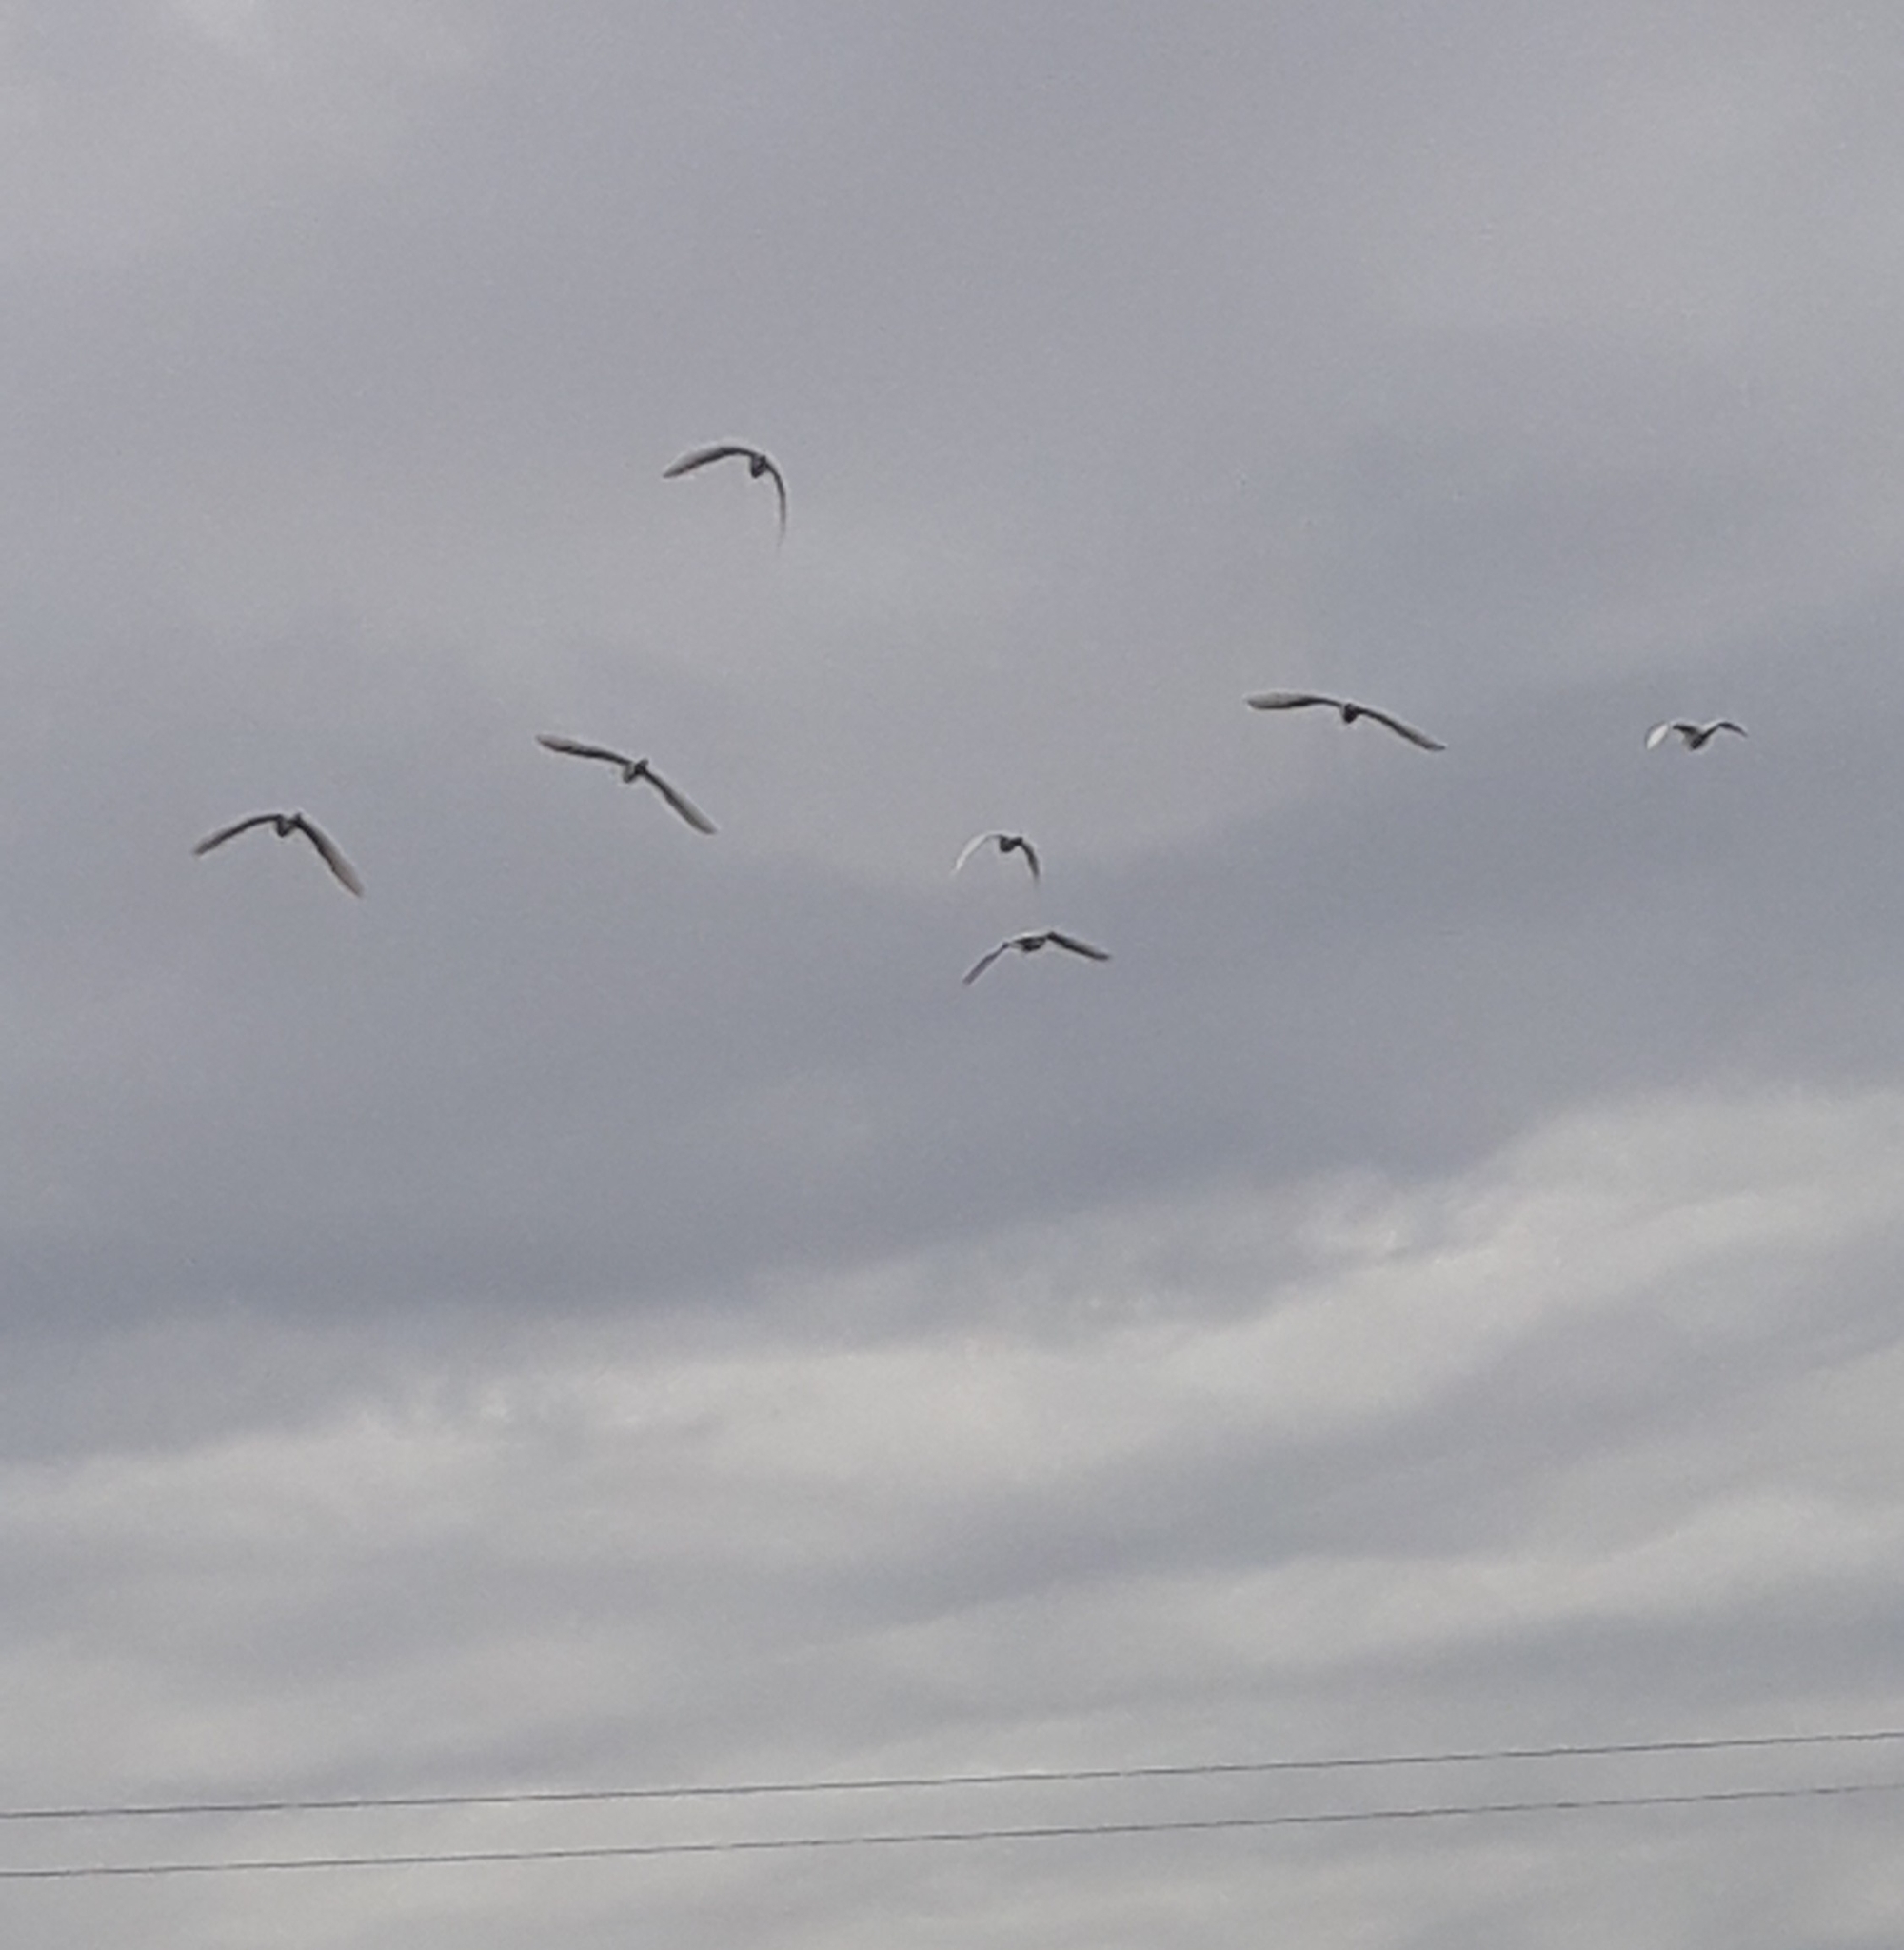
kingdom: Animalia
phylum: Chordata
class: Aves
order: Pelecaniformes
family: Ardeidae
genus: Bubulcus
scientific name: Bubulcus ibis
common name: Cattle egret
